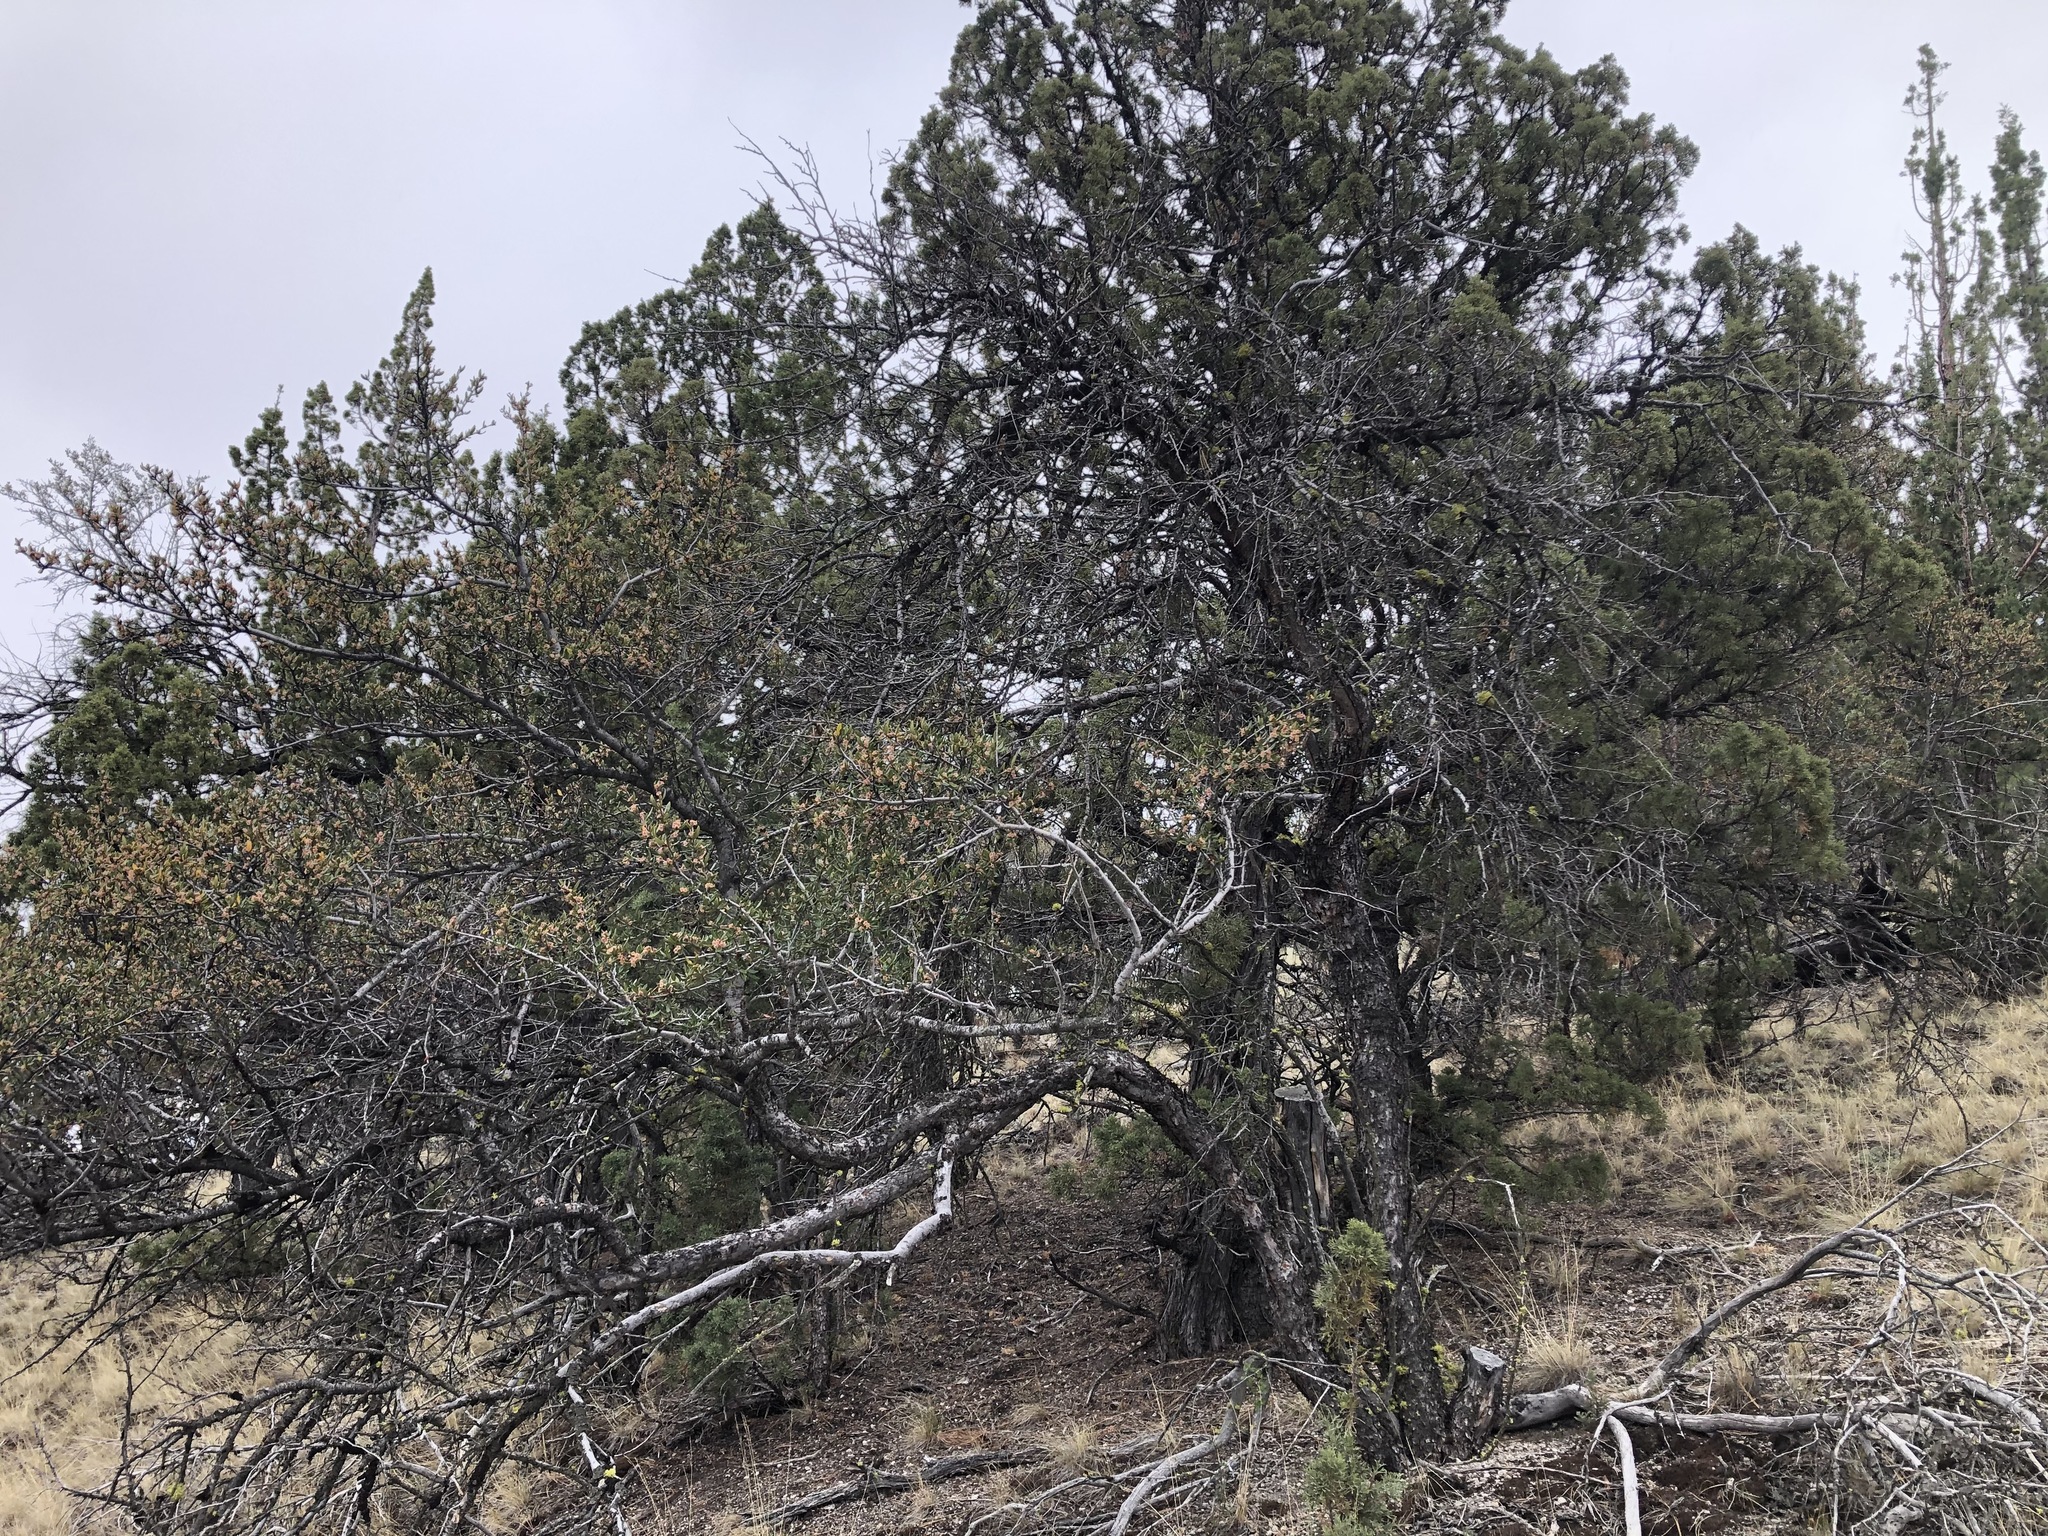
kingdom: Plantae
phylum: Tracheophyta
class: Magnoliopsida
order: Rosales
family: Rosaceae
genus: Cercocarpus
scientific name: Cercocarpus ledifolius
